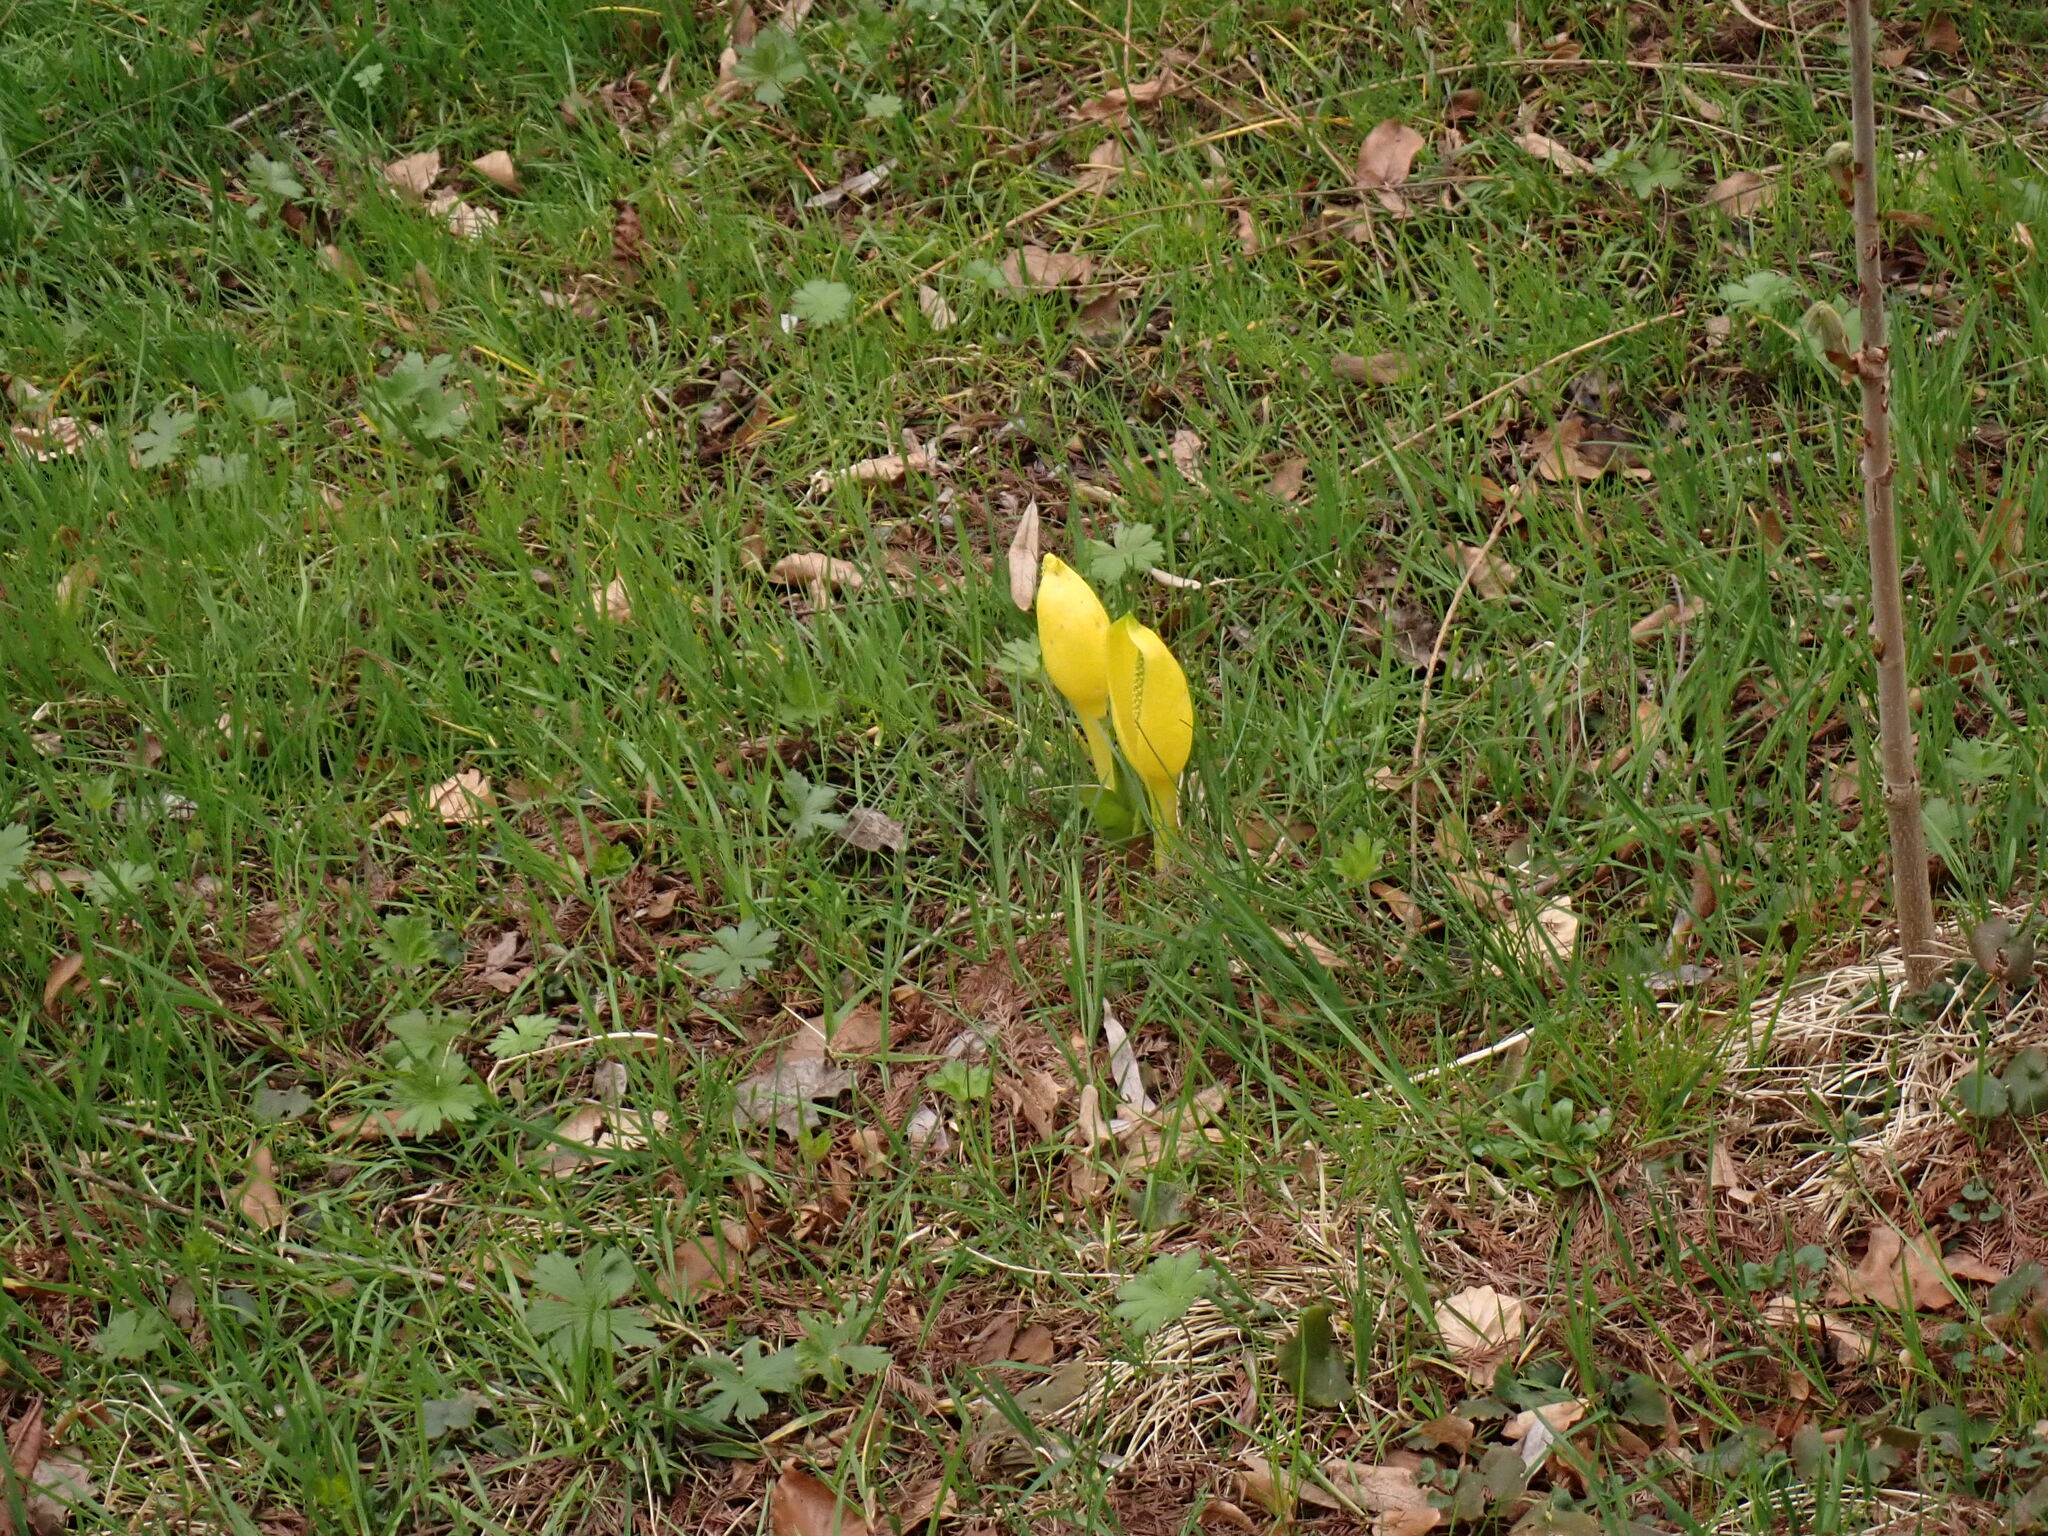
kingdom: Plantae
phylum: Tracheophyta
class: Liliopsida
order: Alismatales
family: Araceae
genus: Lysichiton
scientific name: Lysichiton americanus
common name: American skunk cabbage
